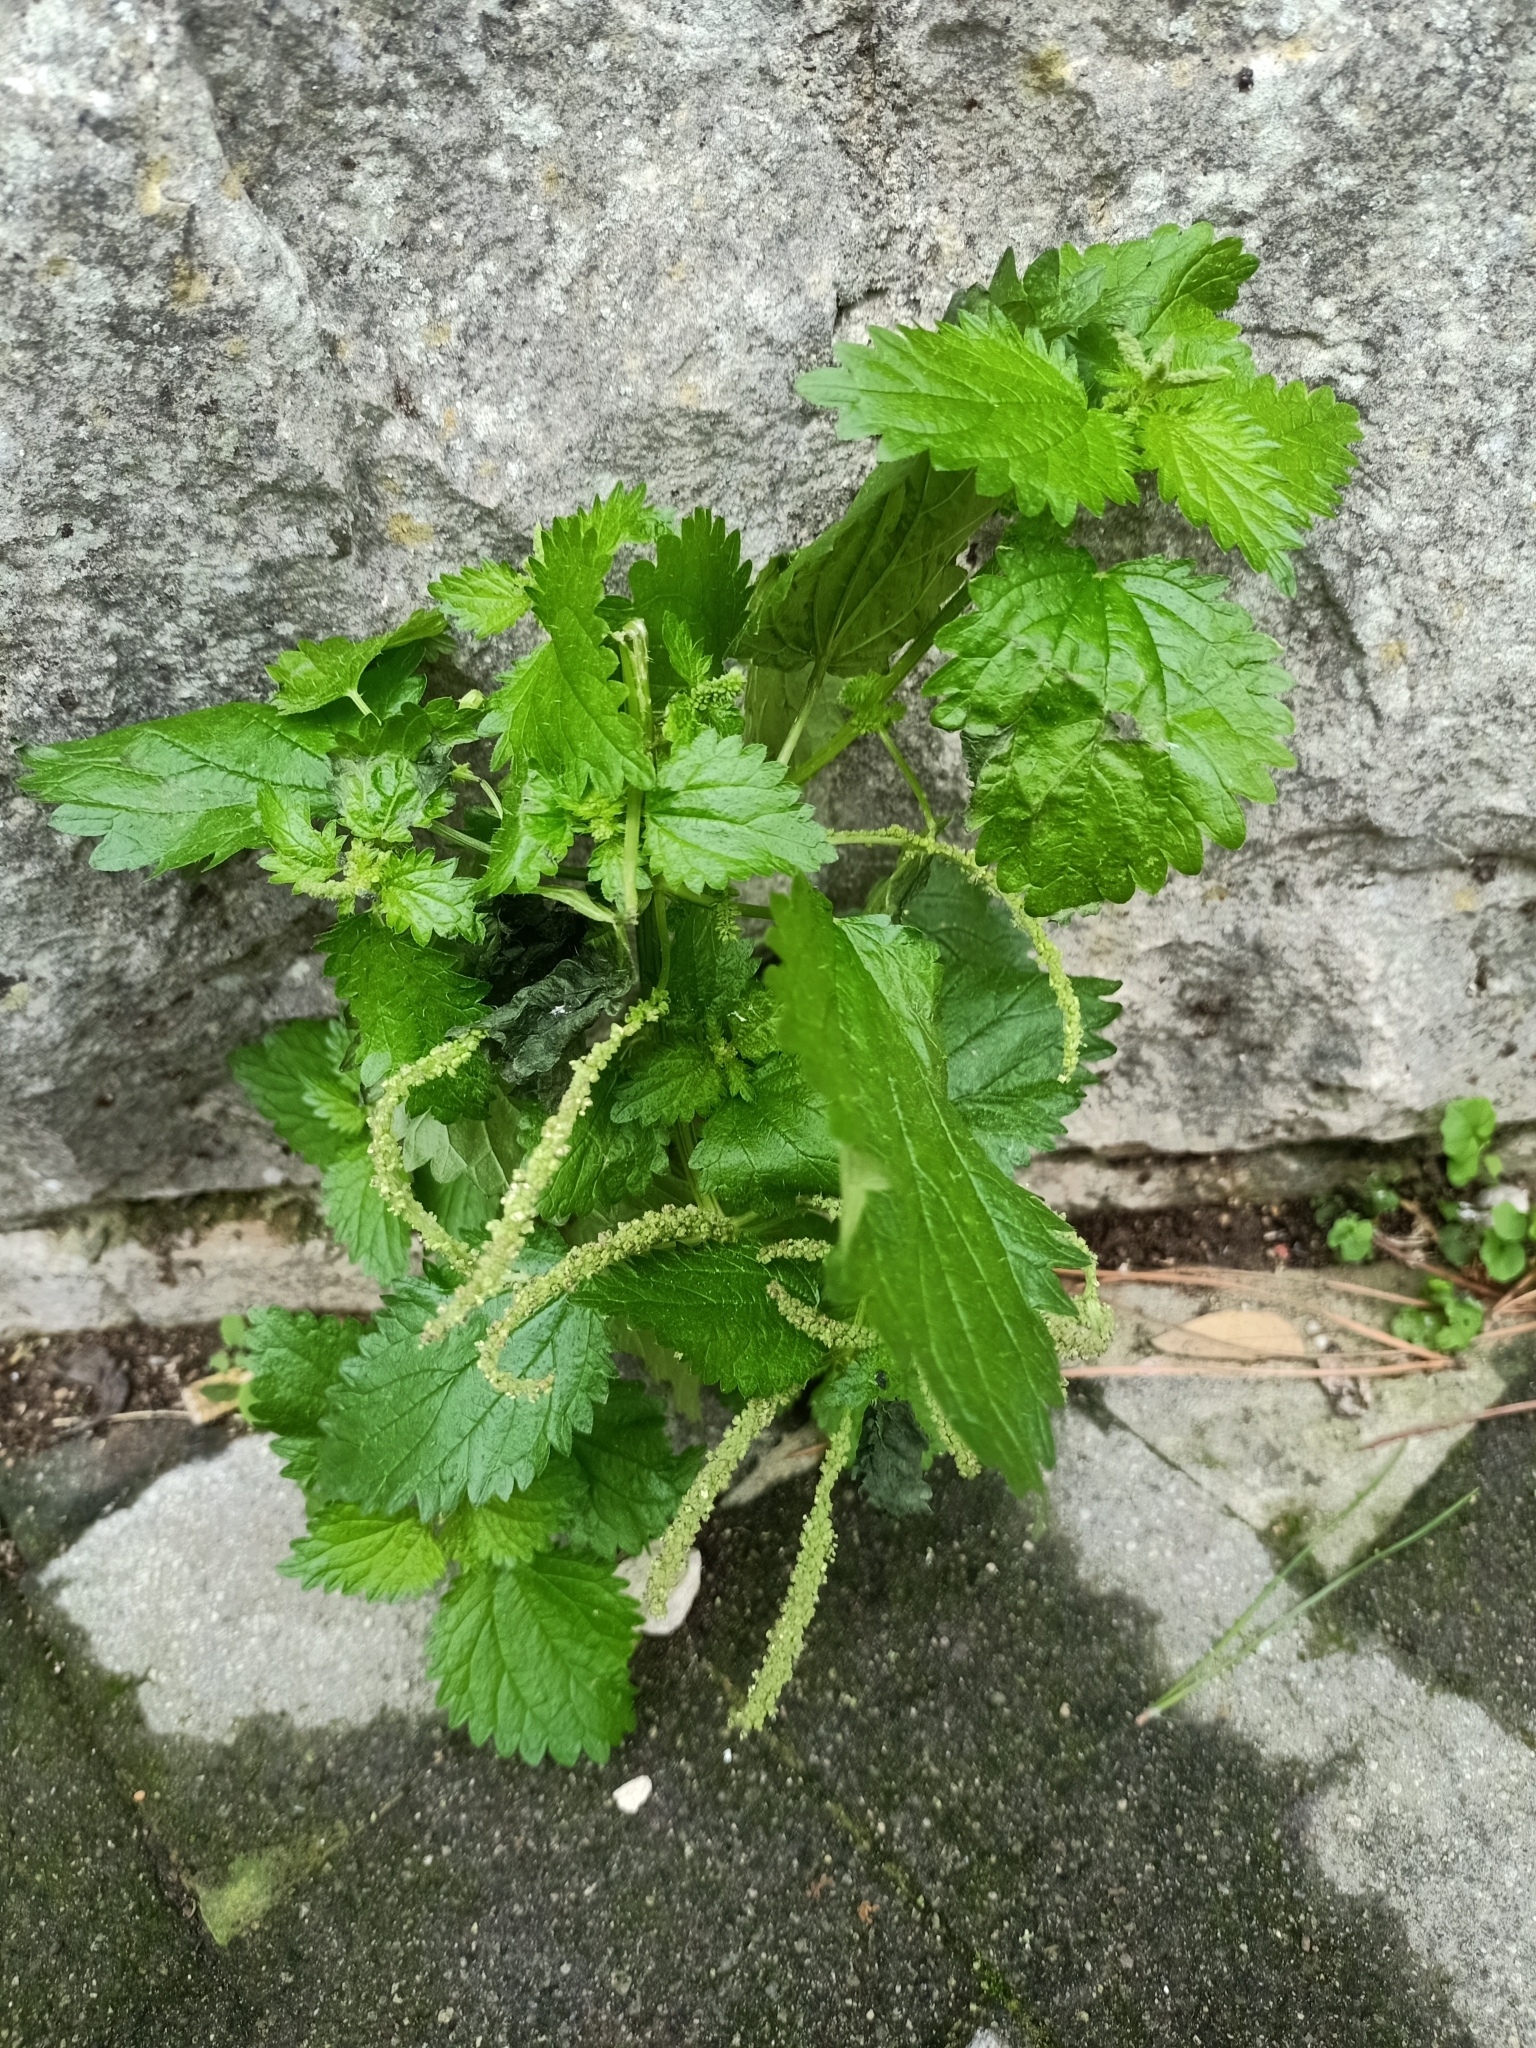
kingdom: Plantae
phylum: Tracheophyta
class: Magnoliopsida
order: Rosales
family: Urticaceae
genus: Urtica
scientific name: Urtica membranacea
